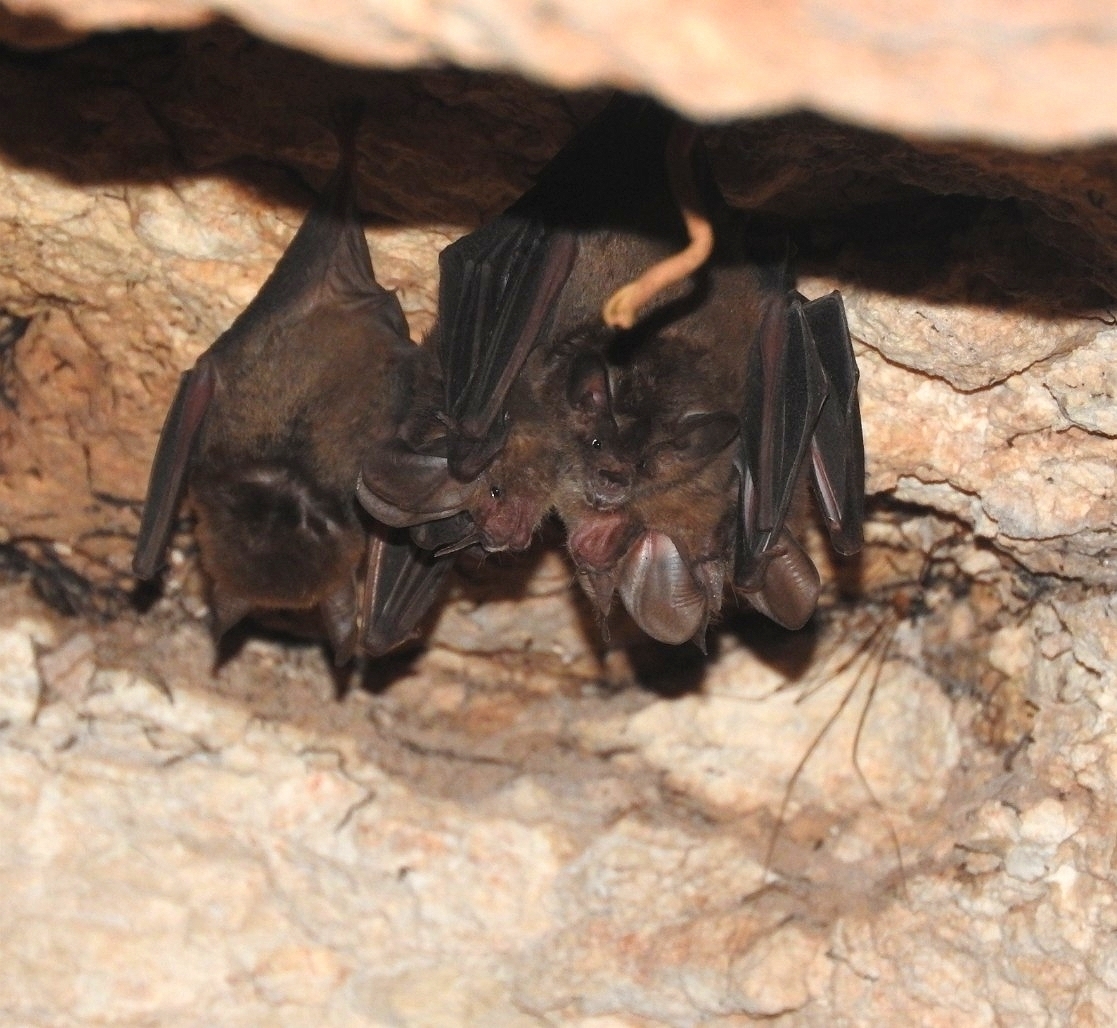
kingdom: Animalia
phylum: Chordata
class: Mammalia
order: Chiroptera
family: Phyllostomidae
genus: Micronycteris
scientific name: Micronycteris microtis
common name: Common big-eared bat
